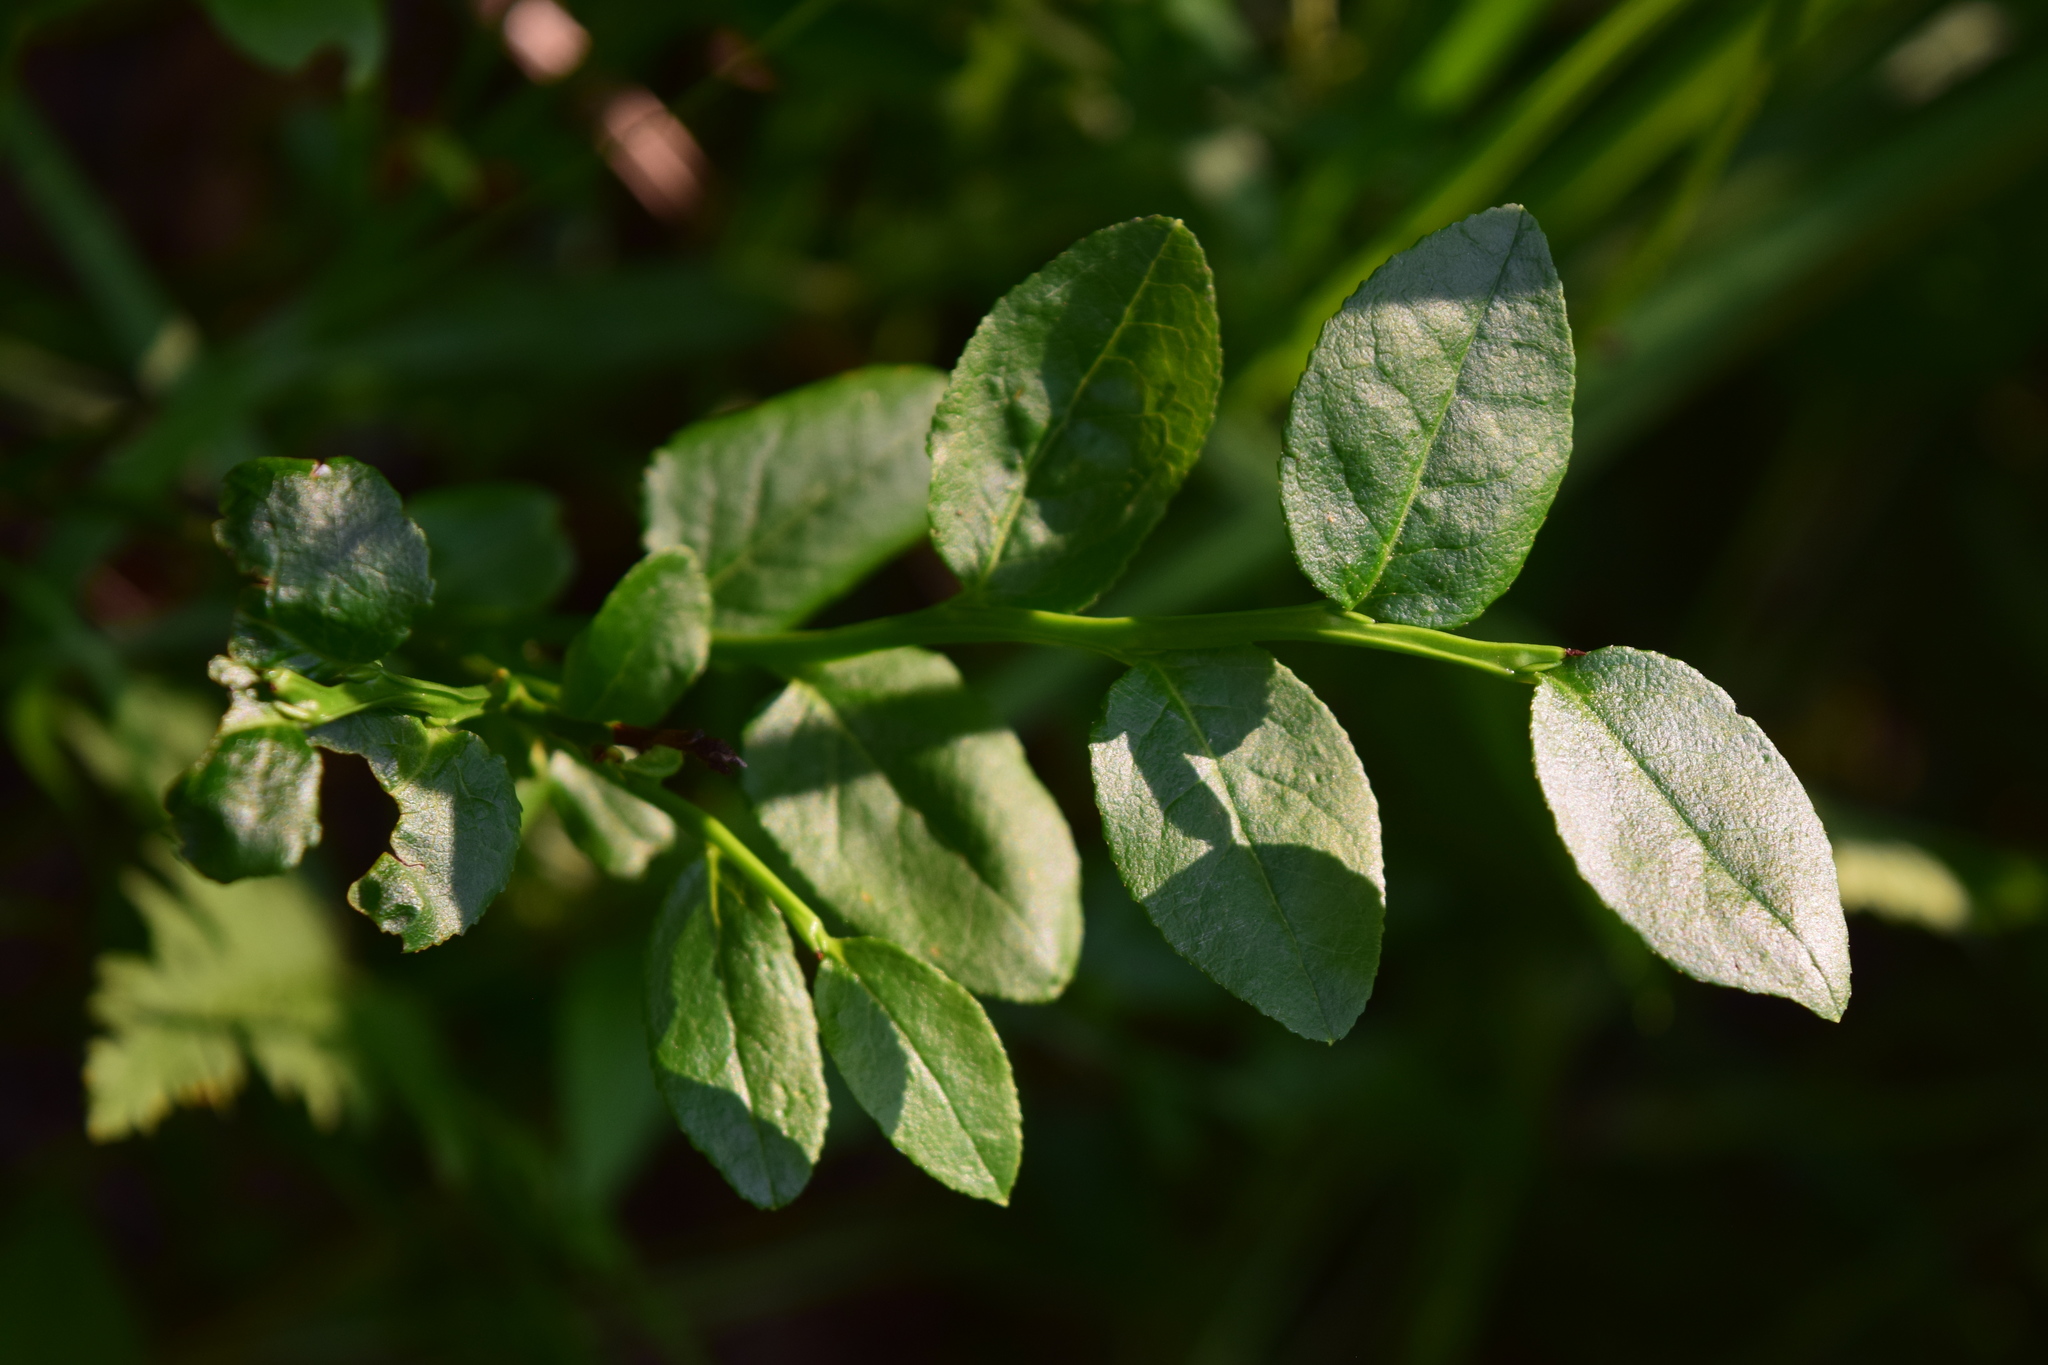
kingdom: Plantae
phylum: Tracheophyta
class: Magnoliopsida
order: Ericales
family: Ericaceae
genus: Vaccinium
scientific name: Vaccinium myrtillus
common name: Bilberry
